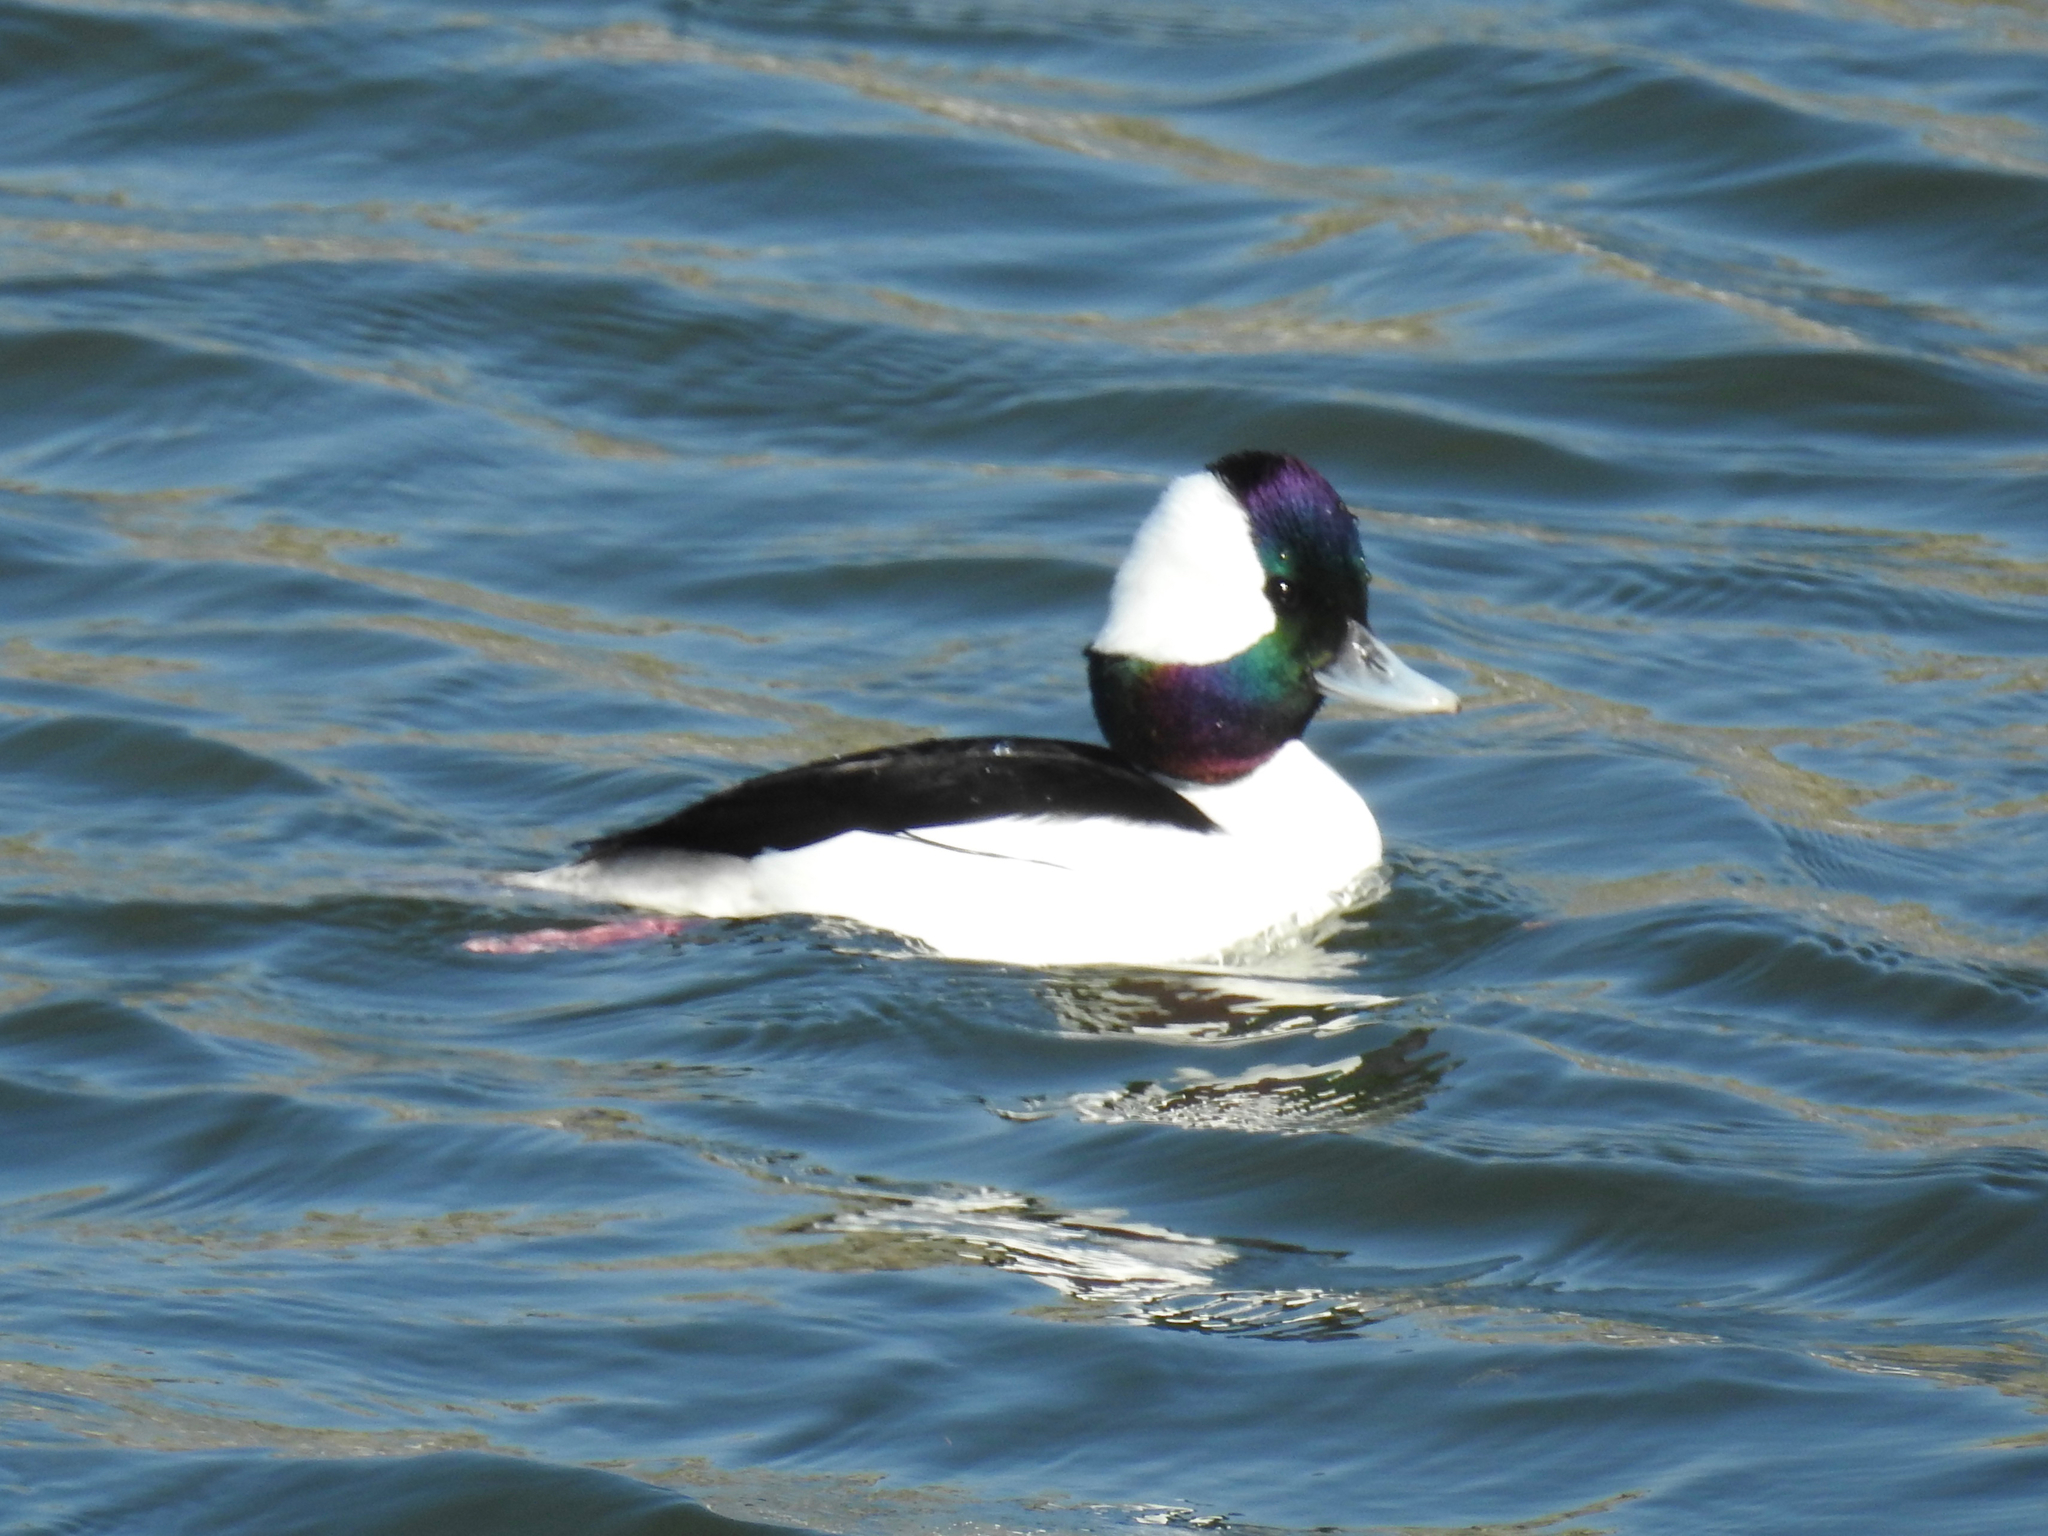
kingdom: Animalia
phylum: Chordata
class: Aves
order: Anseriformes
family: Anatidae
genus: Bucephala
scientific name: Bucephala albeola
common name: Bufflehead
